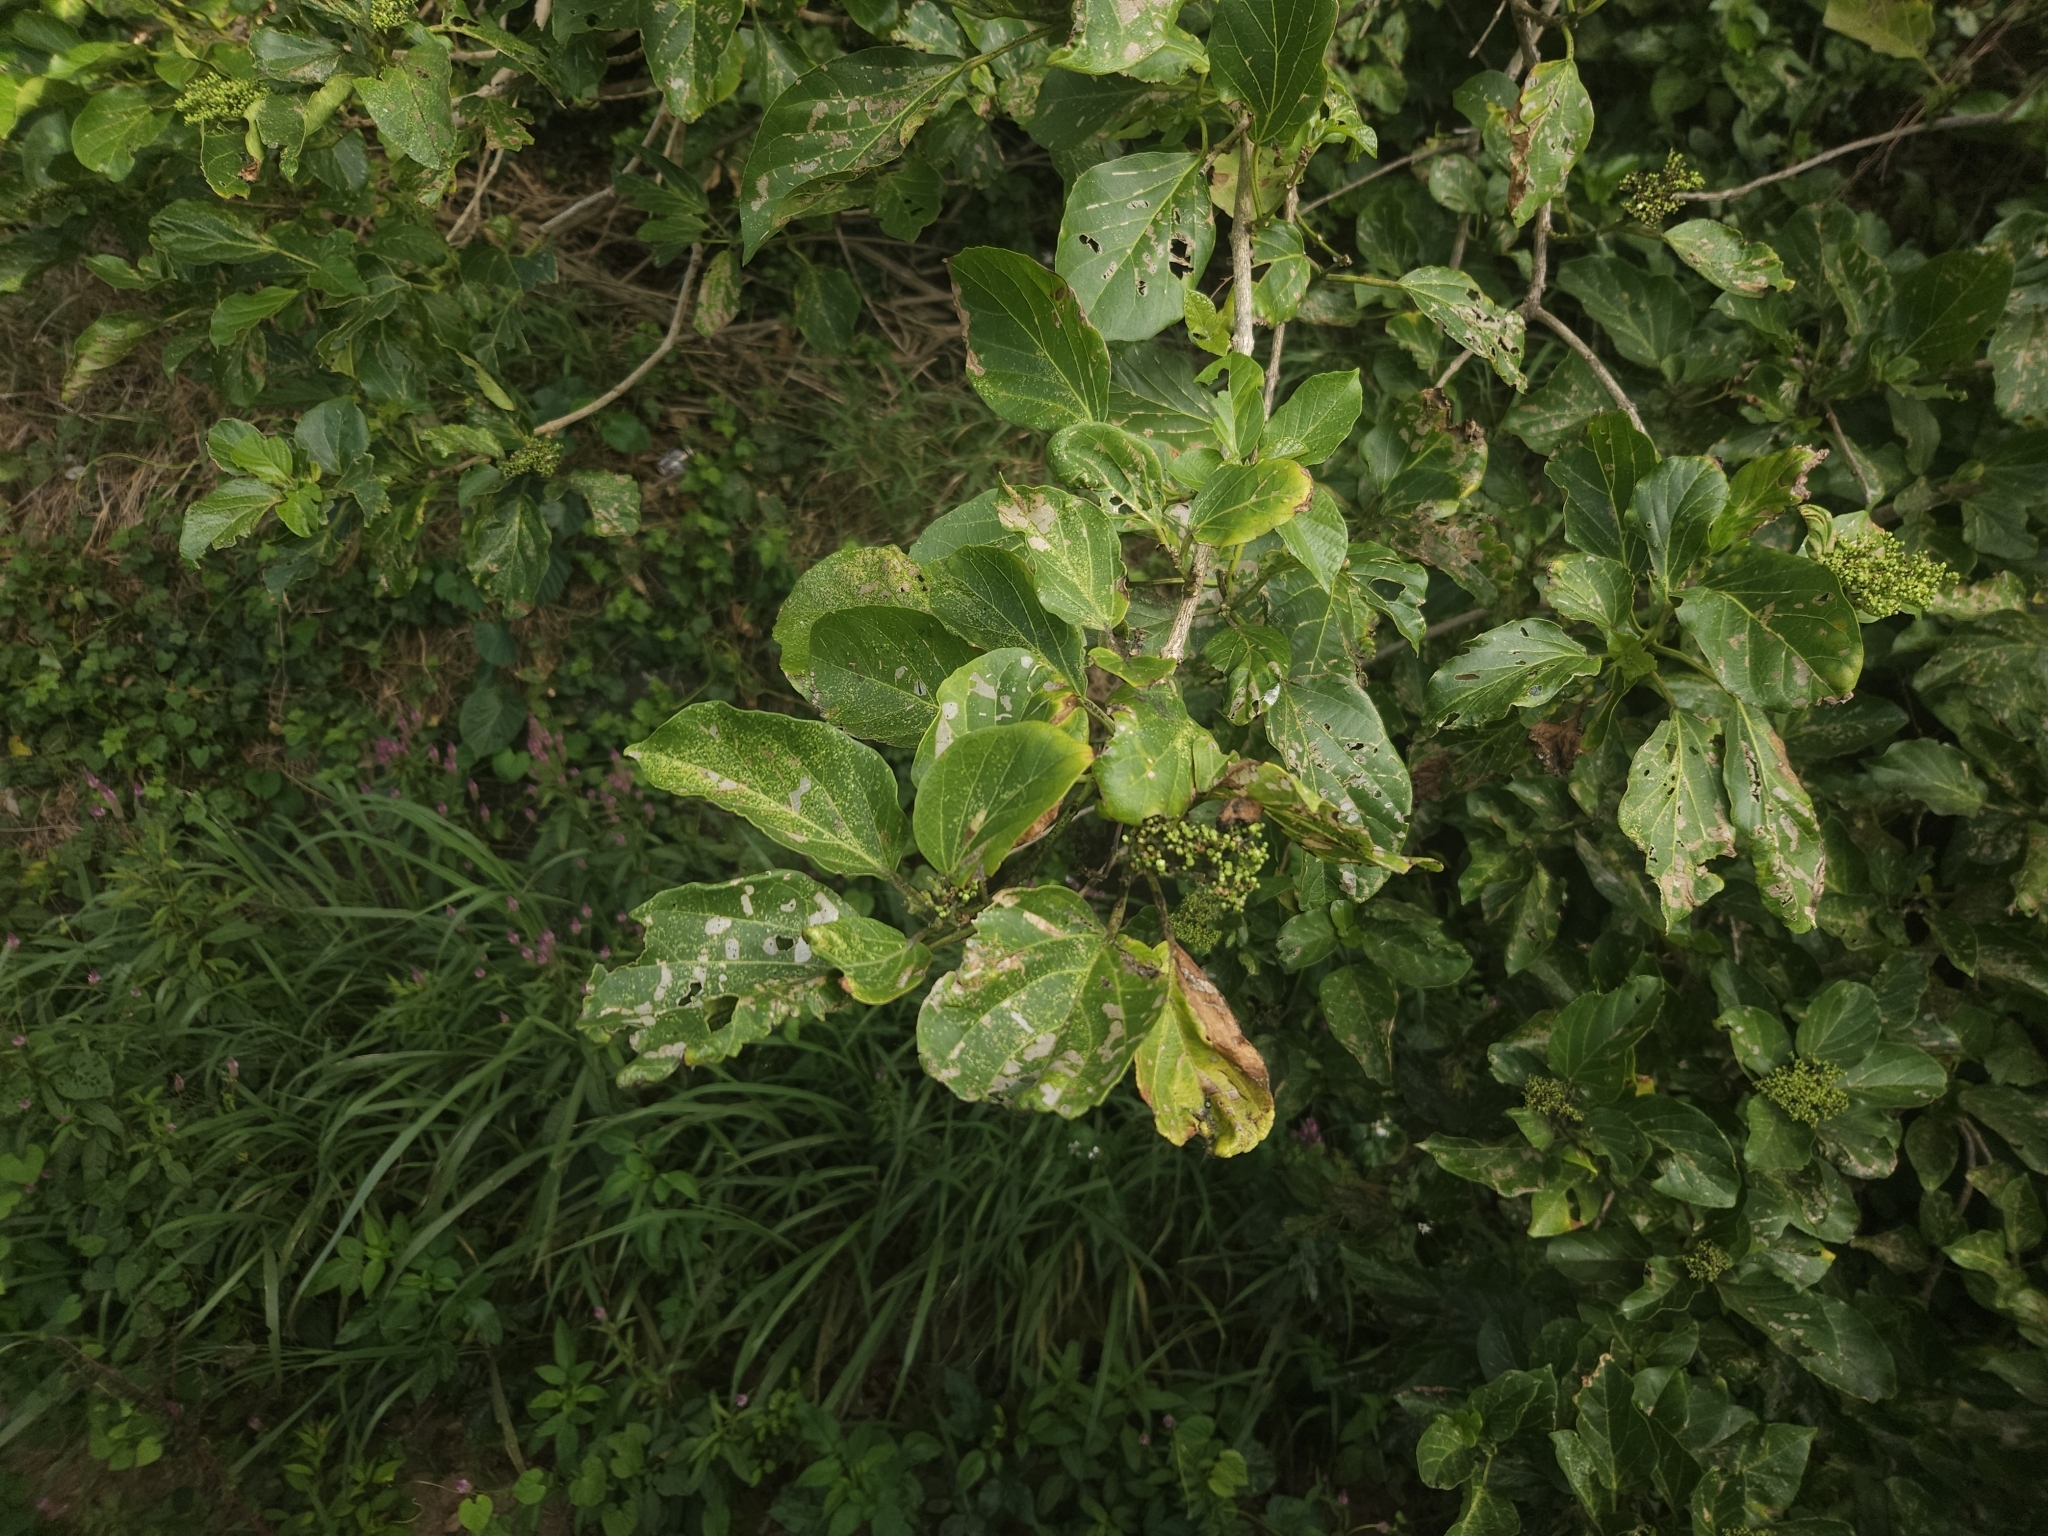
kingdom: Plantae
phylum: Tracheophyta
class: Magnoliopsida
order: Lamiales
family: Lamiaceae
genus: Premna
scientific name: Premna serratifolia
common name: Bastard guelder
